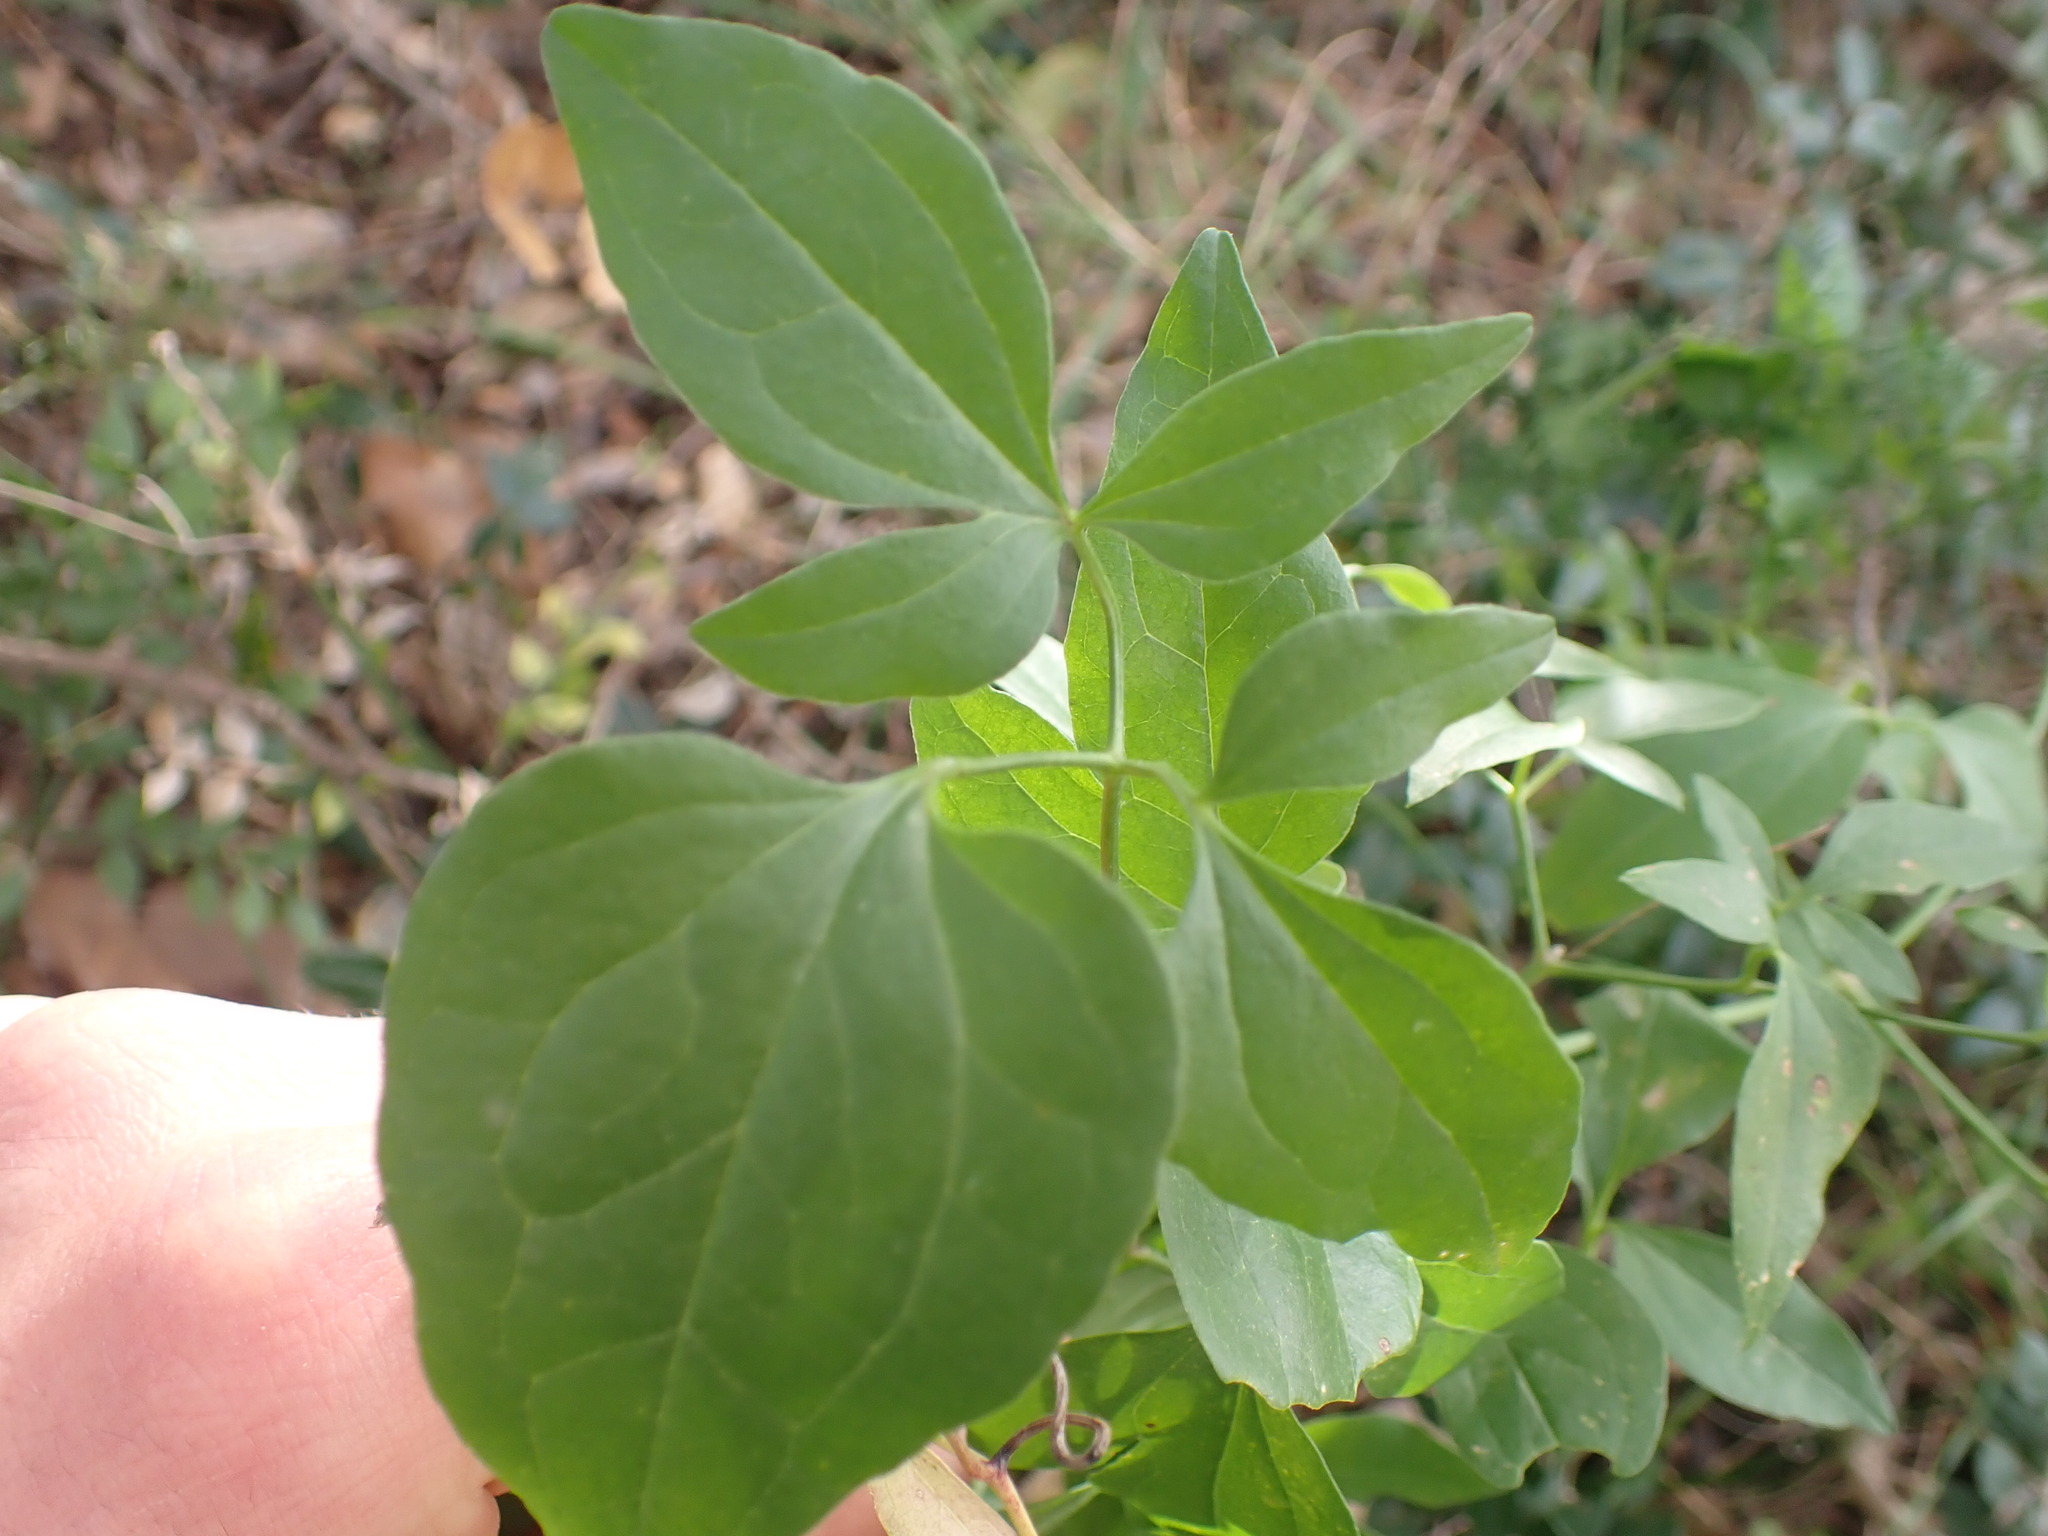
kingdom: Plantae
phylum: Tracheophyta
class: Magnoliopsida
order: Ranunculales
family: Ranunculaceae
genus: Clematis
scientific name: Clematis flammula
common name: Virgin's-bower
